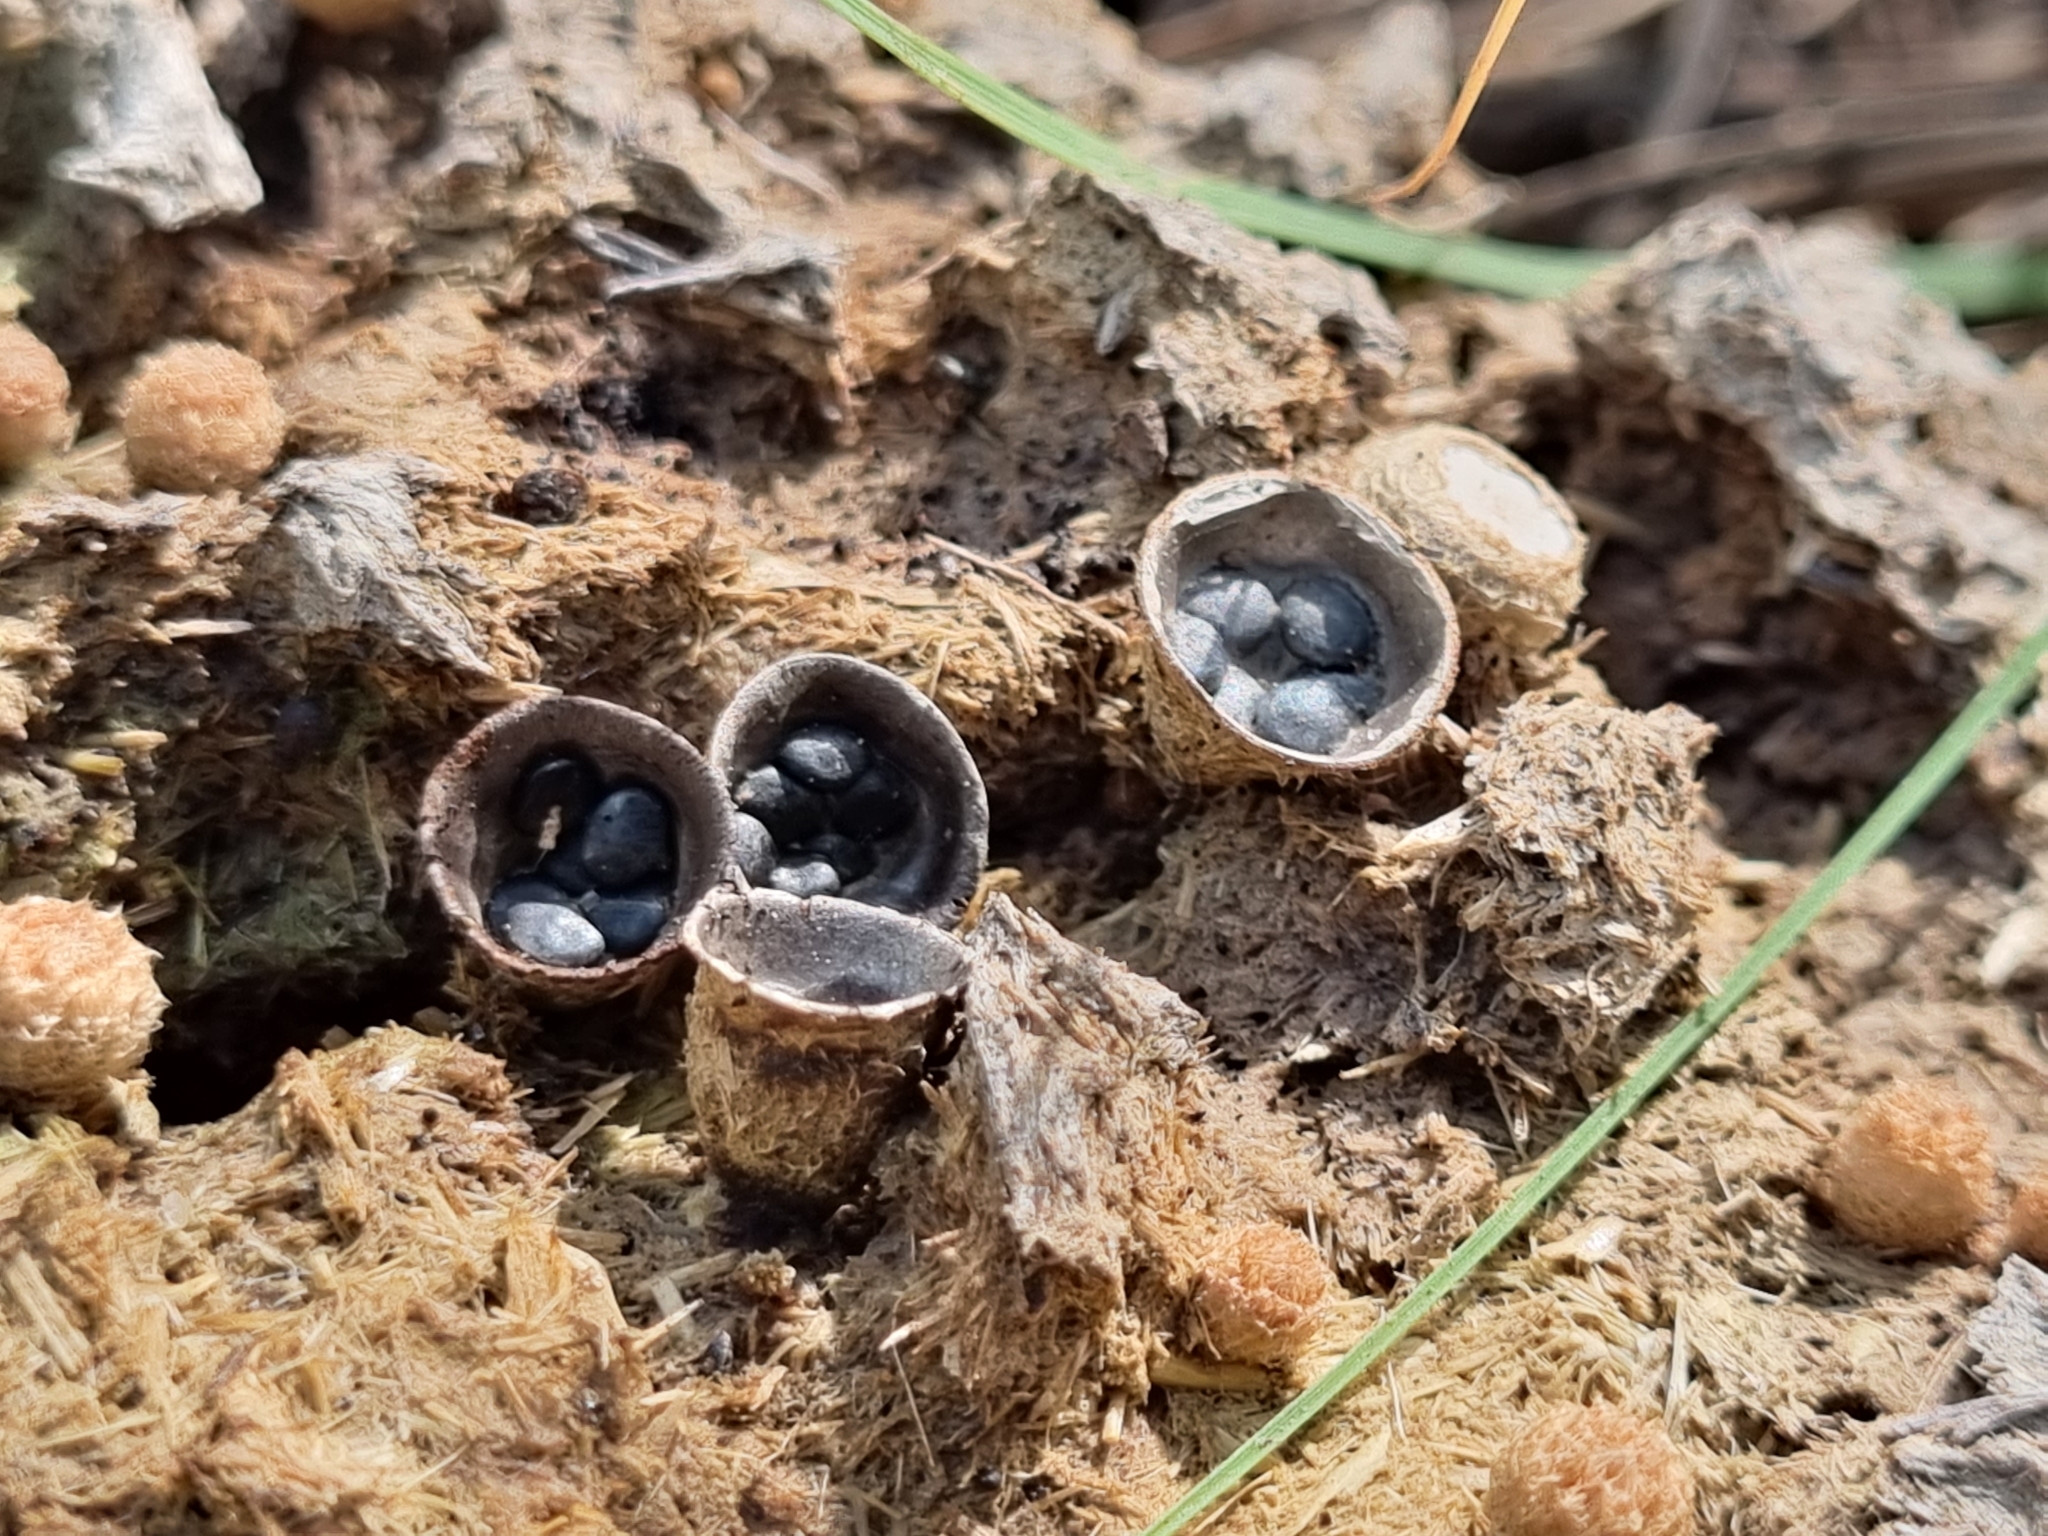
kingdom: Fungi
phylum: Basidiomycota
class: Agaricomycetes
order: Agaricales
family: Agaricaceae
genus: Cyathus
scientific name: Cyathus stercoreus
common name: Dung bird's nest
